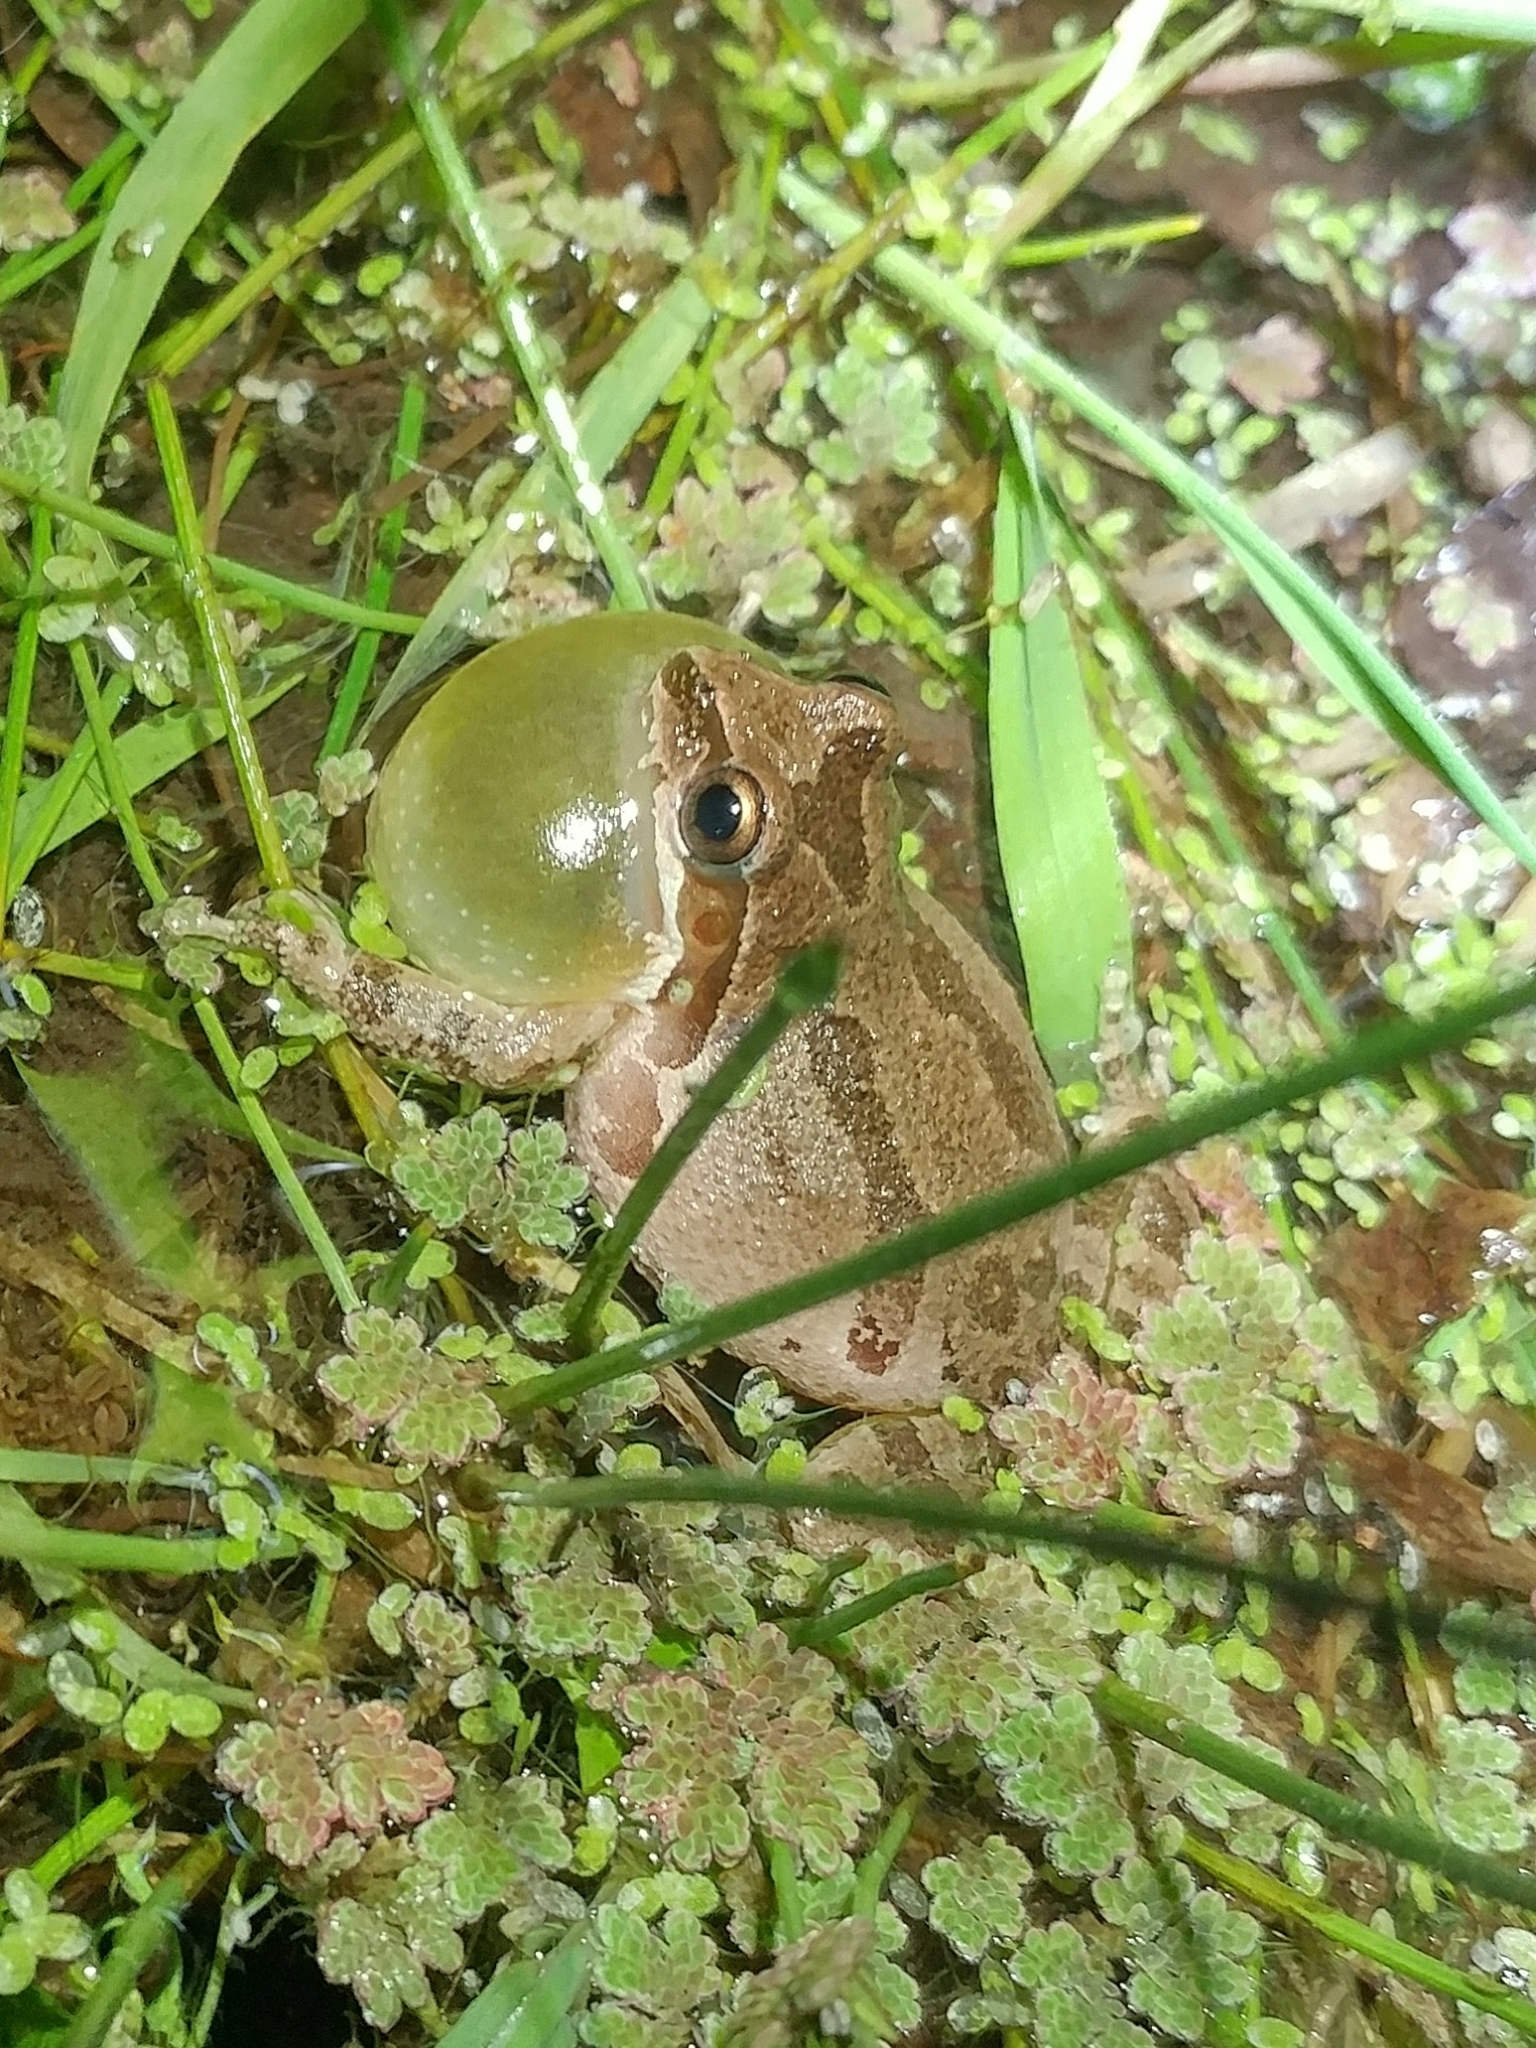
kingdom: Animalia
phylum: Chordata
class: Amphibia
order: Anura
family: Hylidae
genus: Pseudacris
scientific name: Pseudacris regilla
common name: Pacific chorus frog
